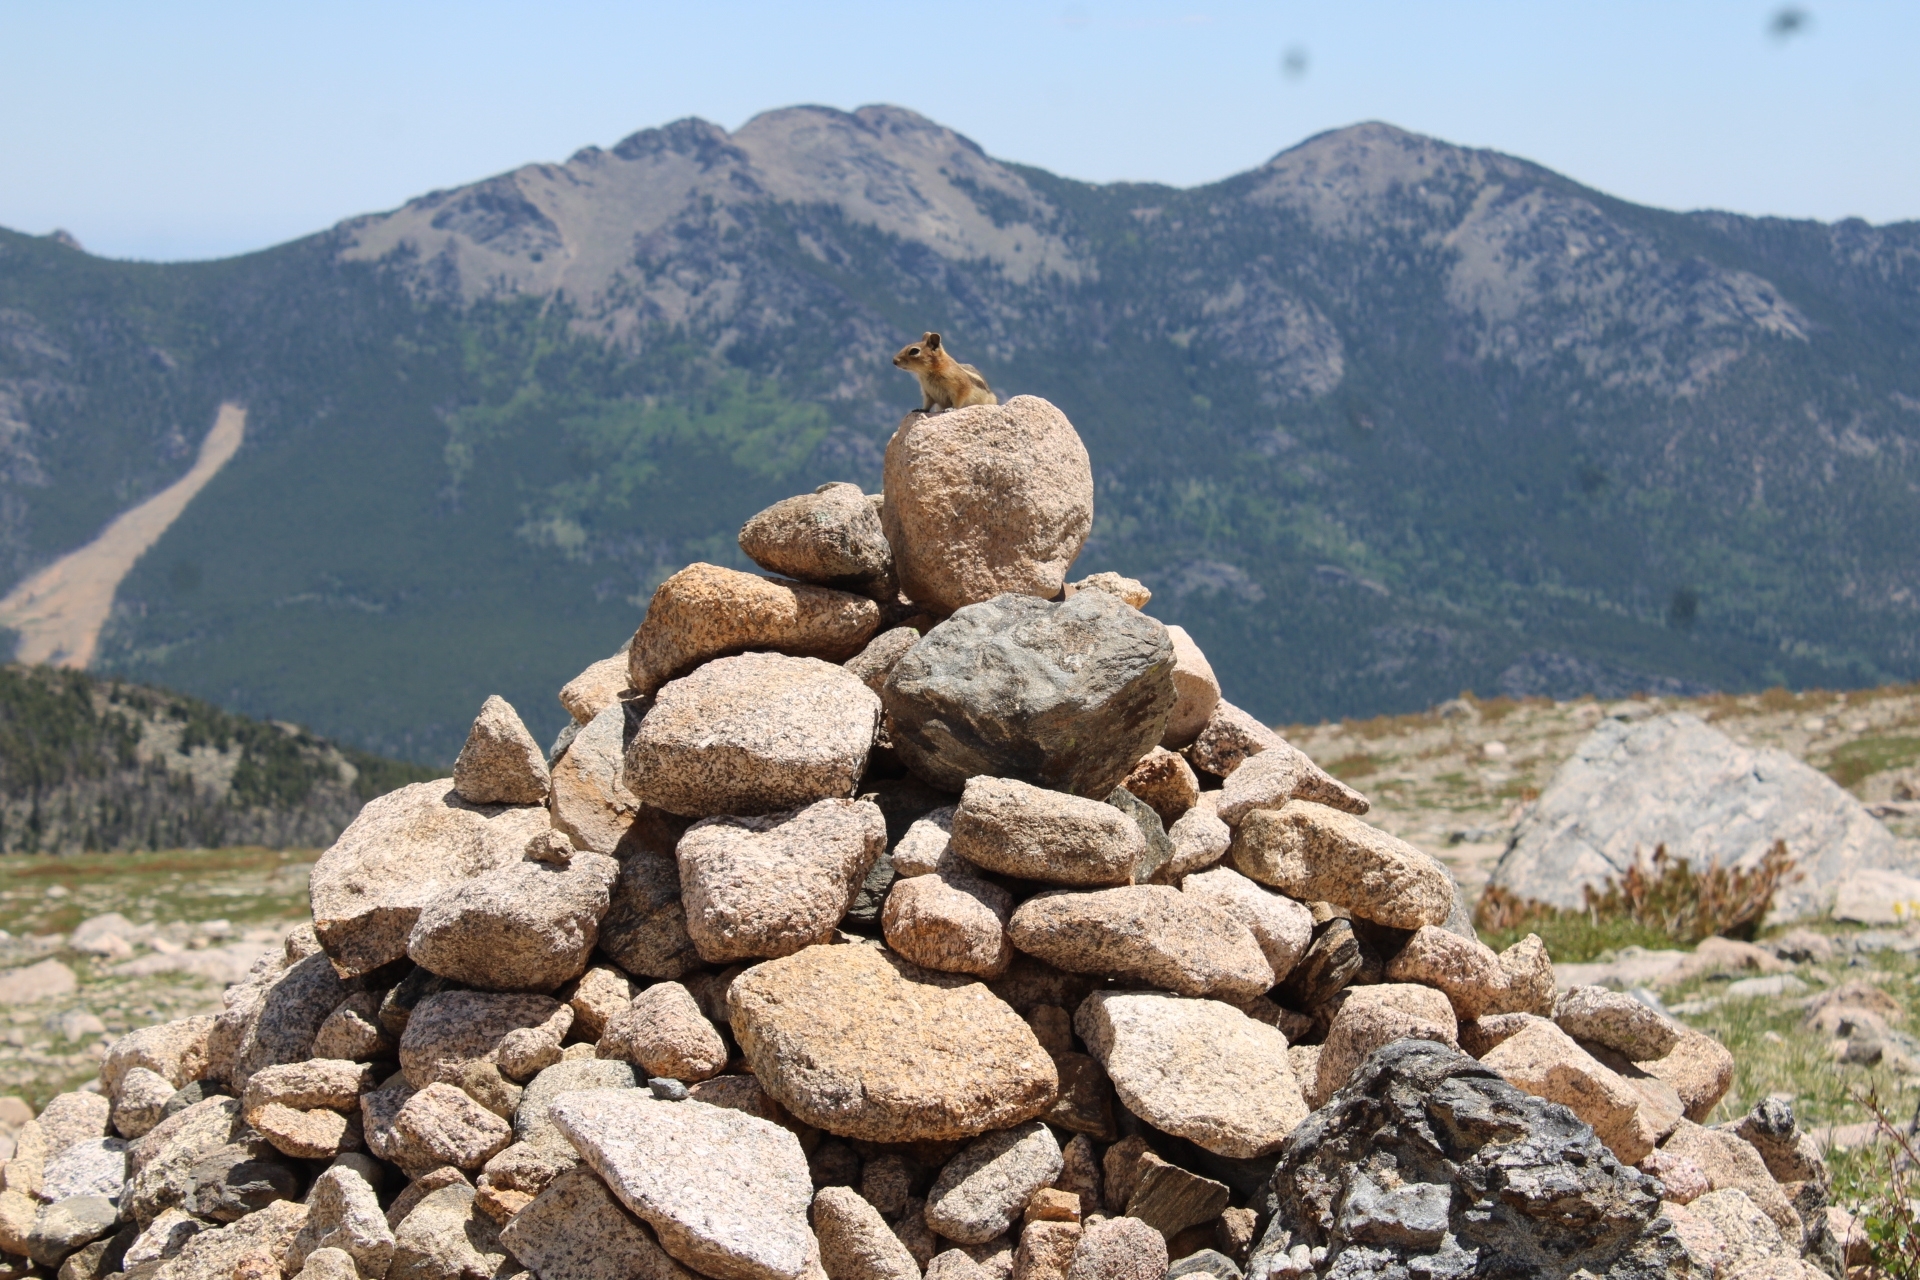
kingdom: Animalia
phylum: Chordata
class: Mammalia
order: Rodentia
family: Sciuridae
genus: Callospermophilus
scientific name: Callospermophilus lateralis
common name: Golden-mantled ground squirrel
